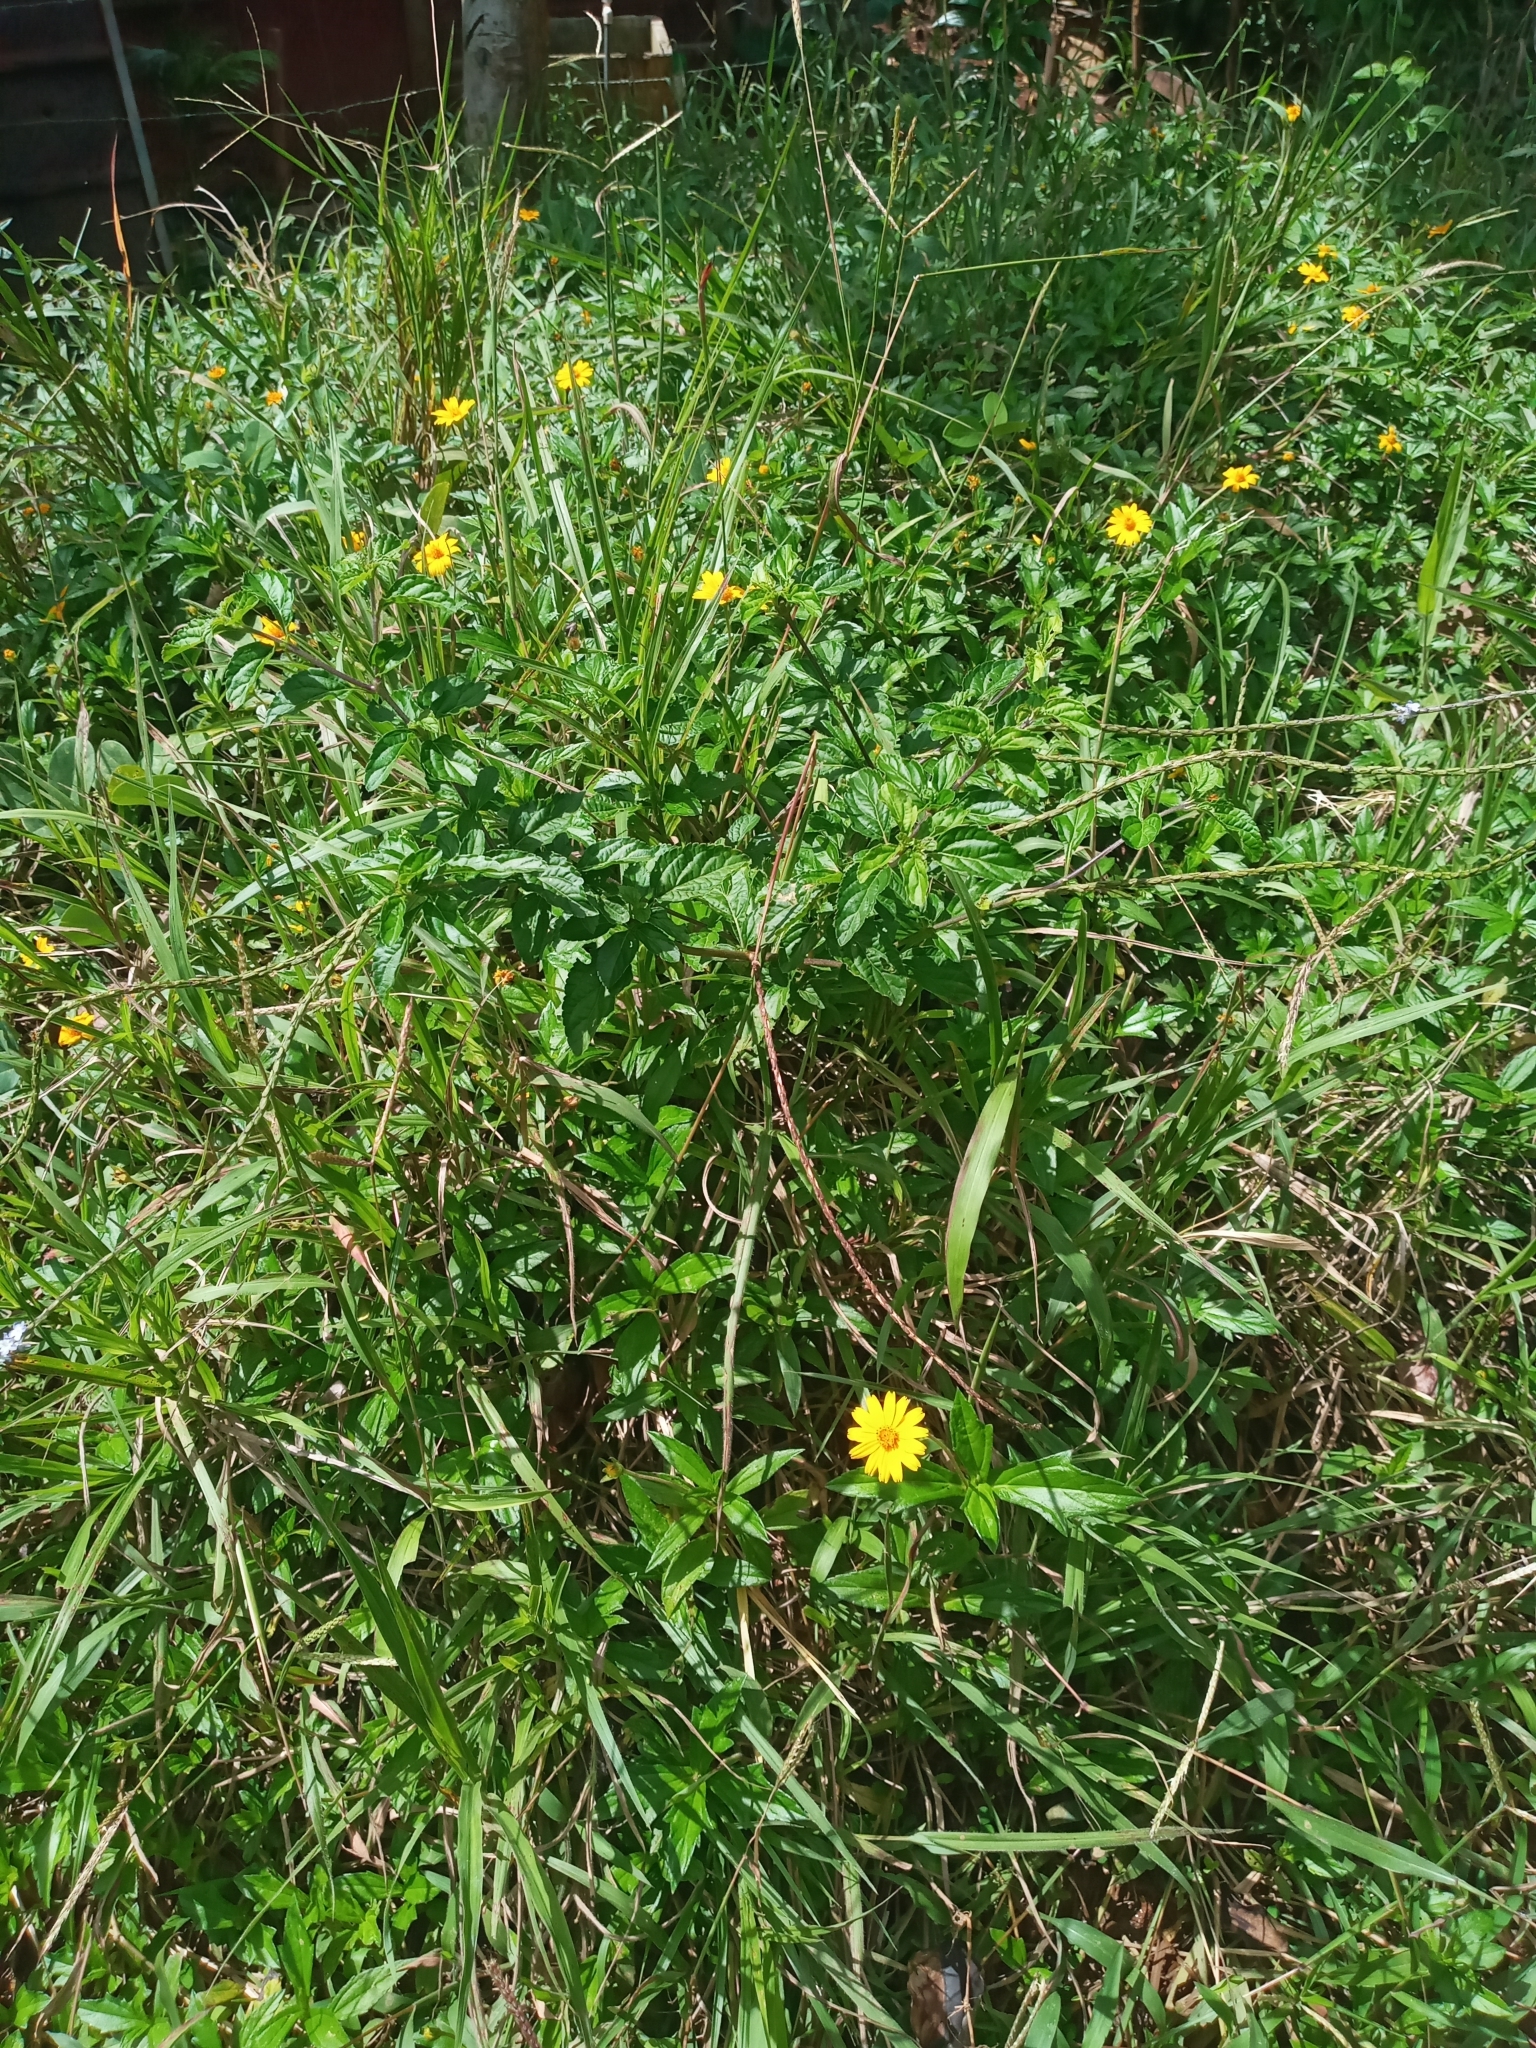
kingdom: Plantae
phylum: Tracheophyta
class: Magnoliopsida
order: Asterales
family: Asteraceae
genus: Sphagneticola
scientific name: Sphagneticola trilobata
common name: Bay biscayne creeping-oxeye
